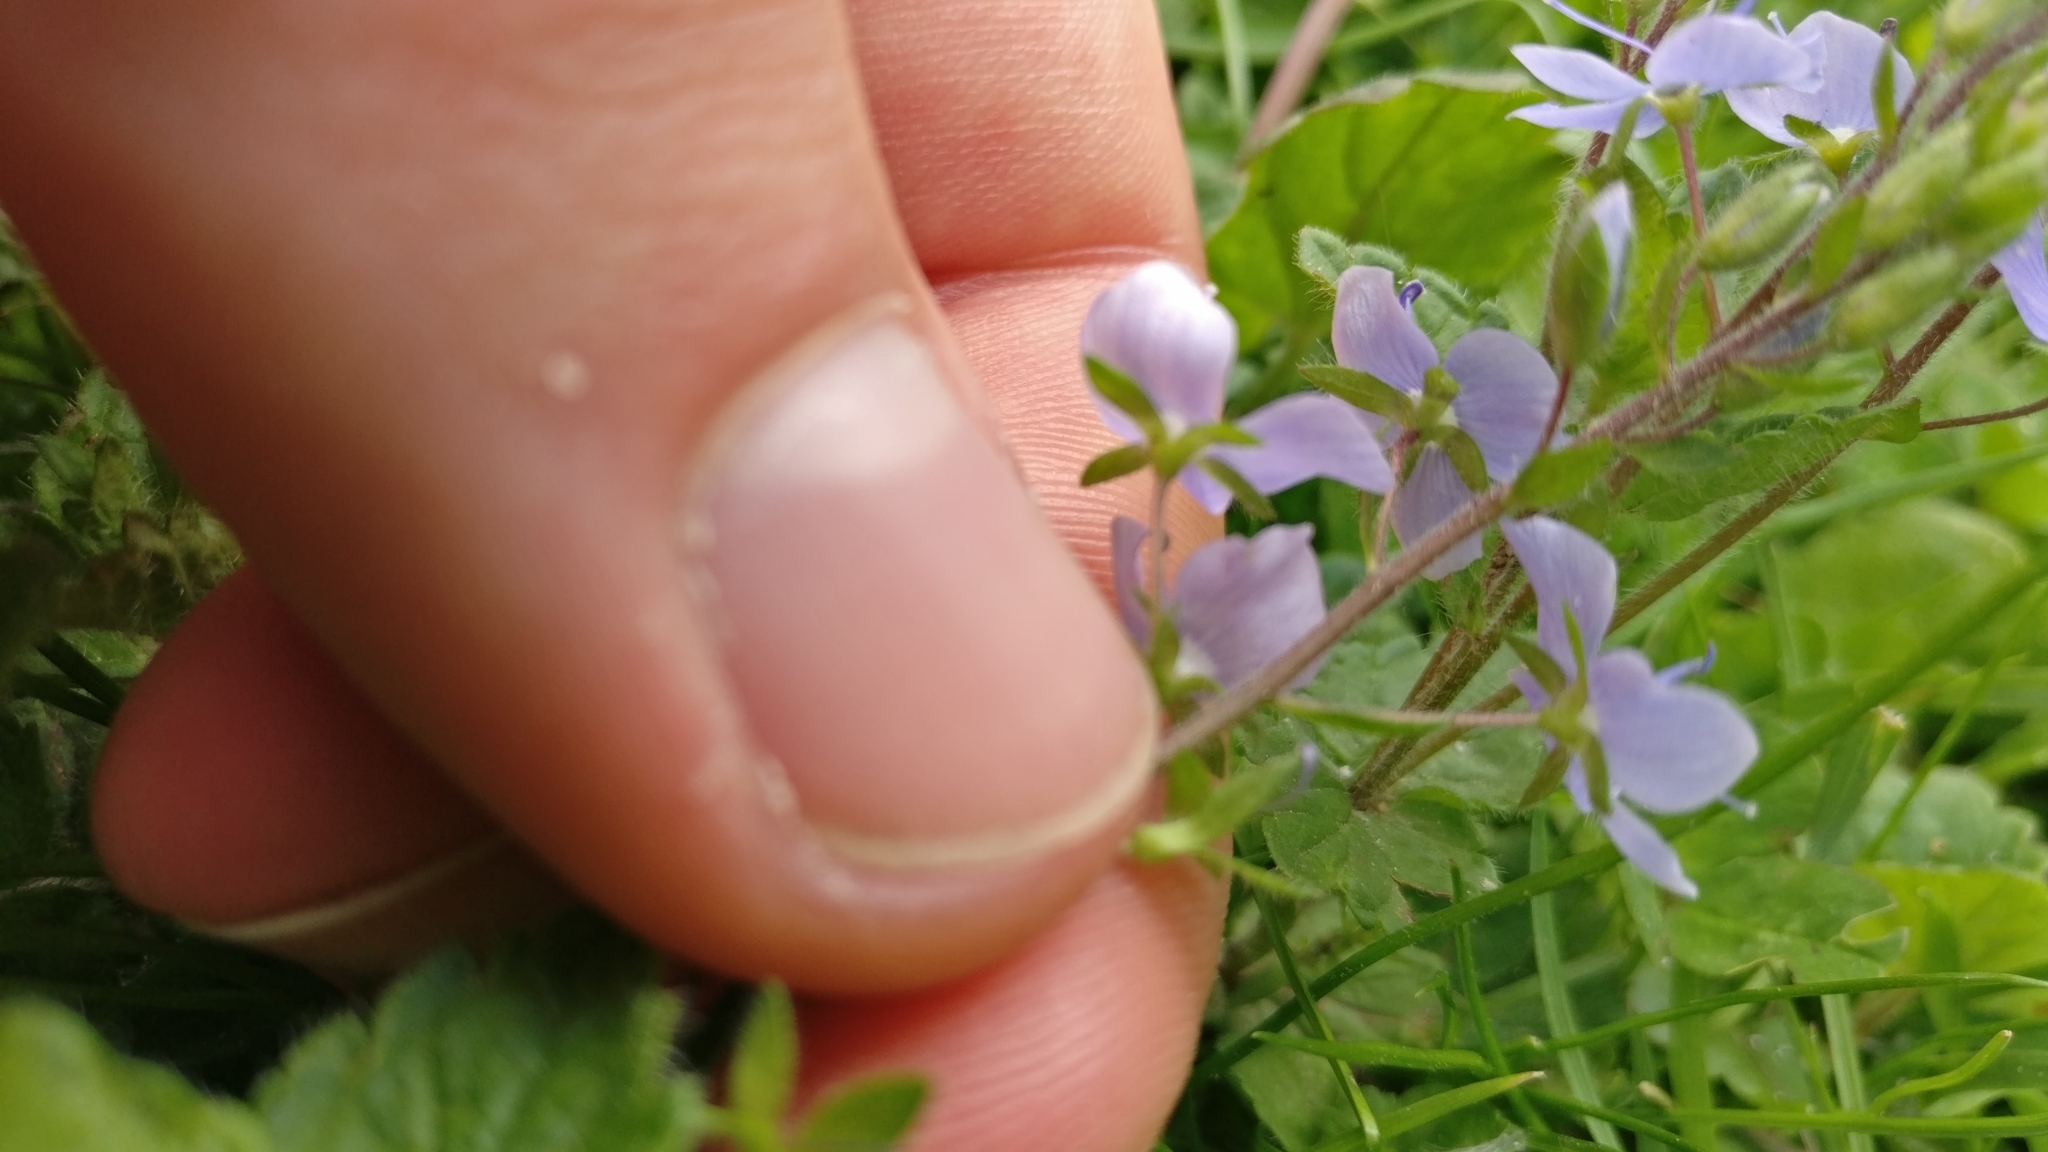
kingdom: Plantae
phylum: Tracheophyta
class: Magnoliopsida
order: Lamiales
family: Plantaginaceae
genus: Veronica
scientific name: Veronica chamaedrys
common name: Germander speedwell
